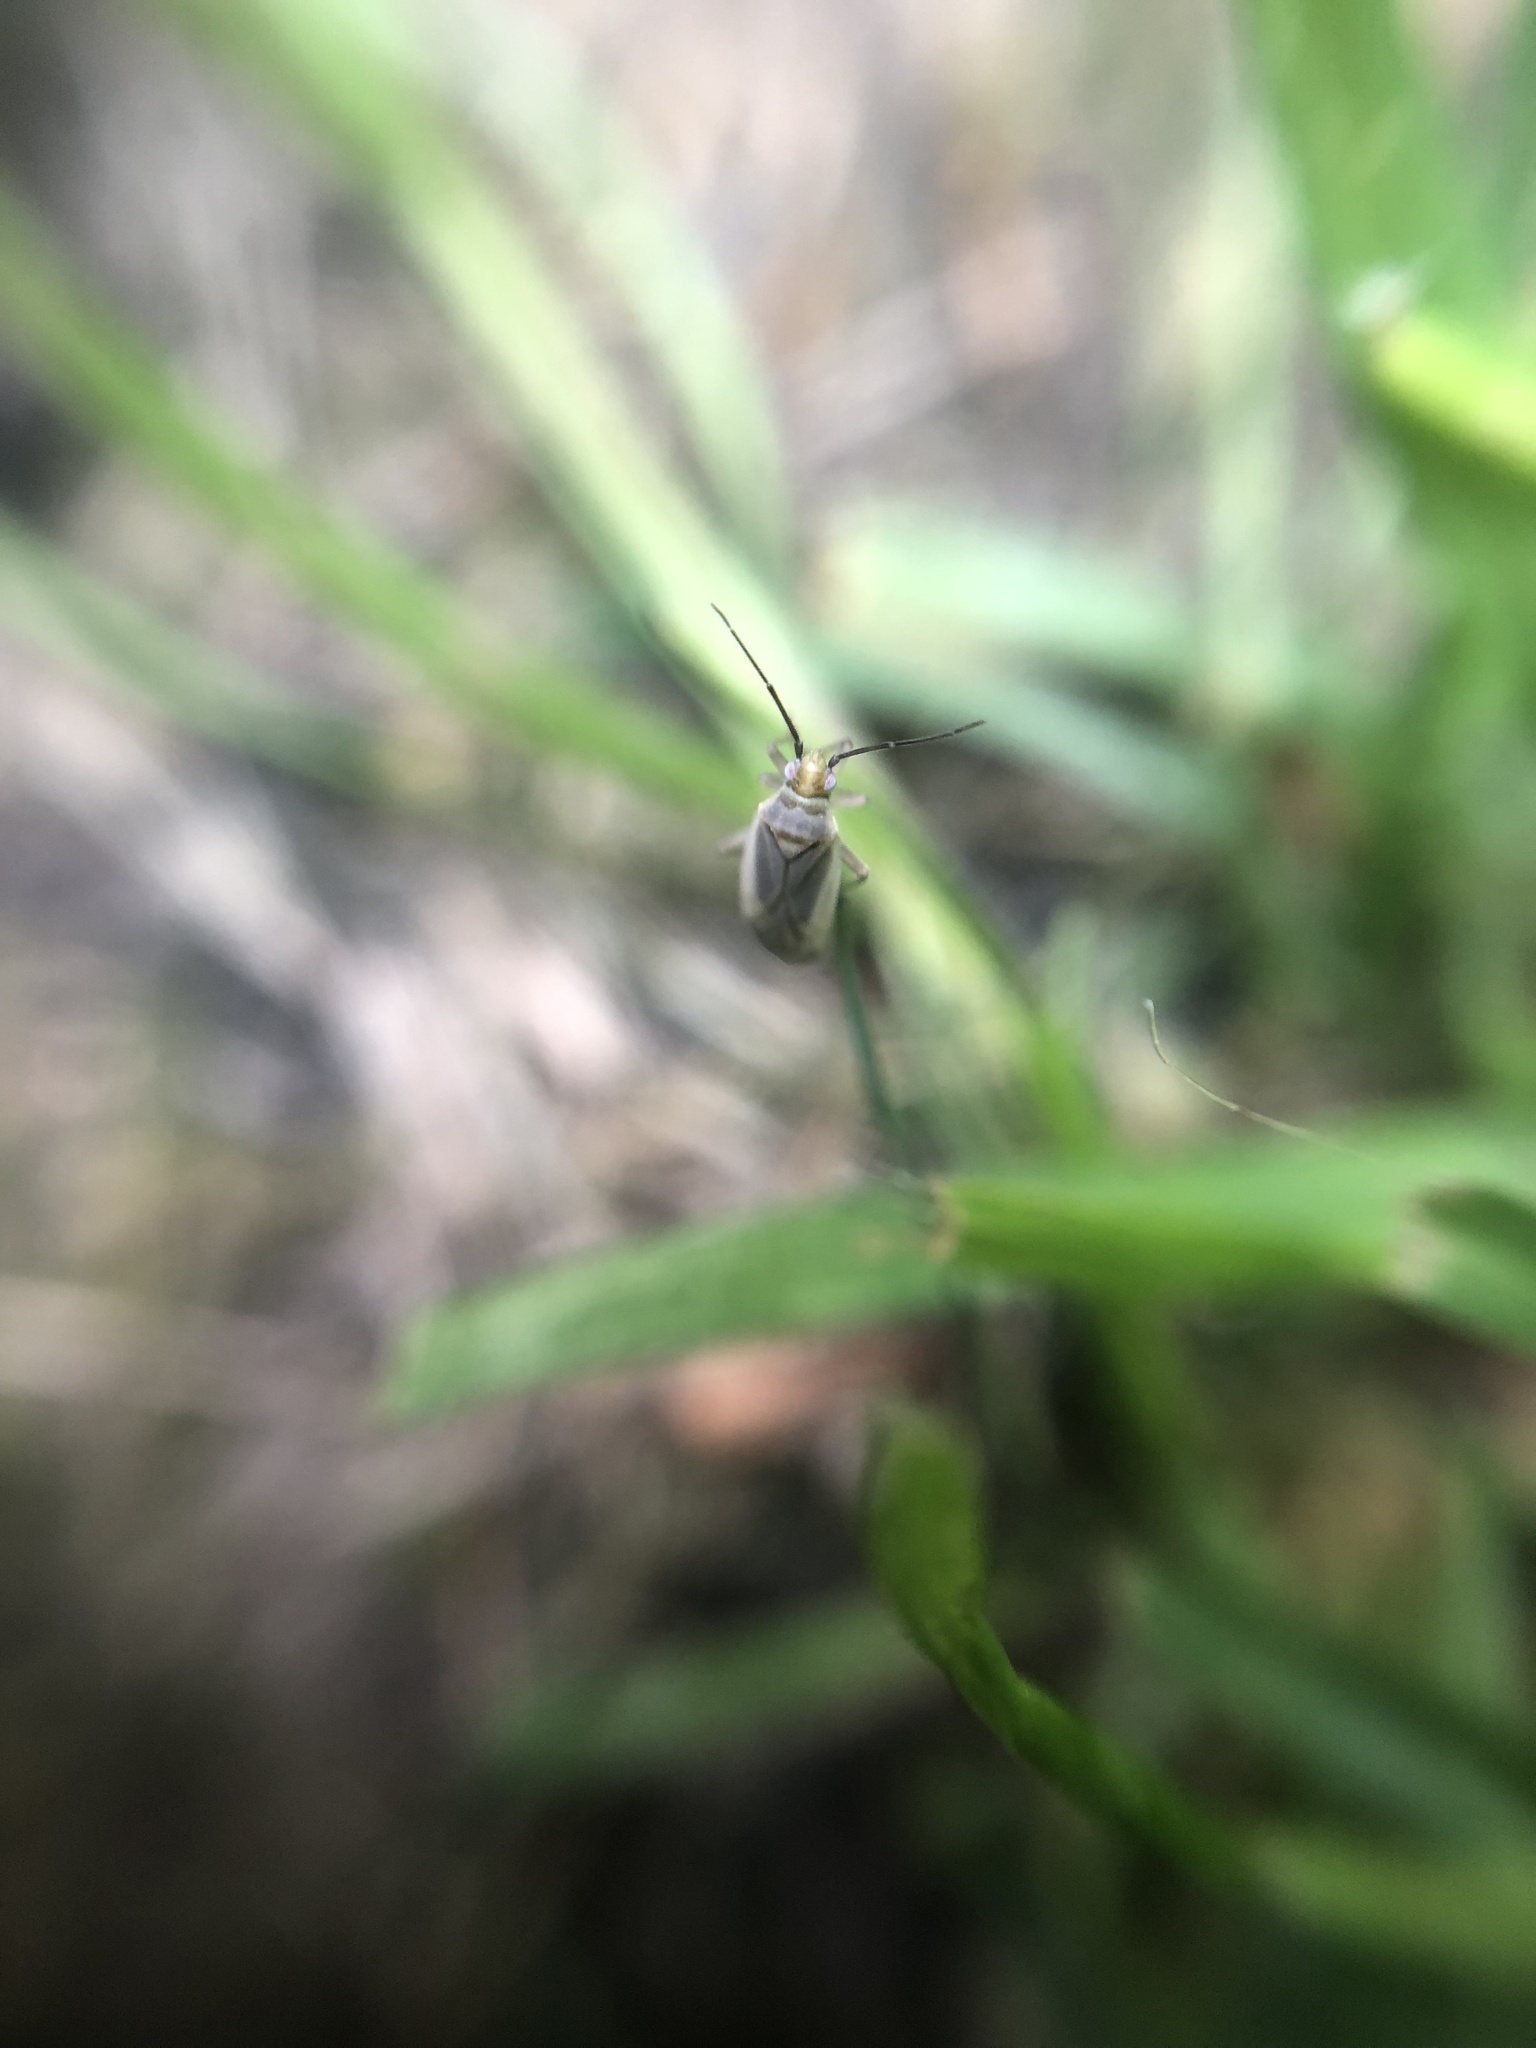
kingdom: Animalia
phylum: Arthropoda
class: Insecta
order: Hemiptera
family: Miridae
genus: Lopus
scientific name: Lopus decolor
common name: Plant bug
